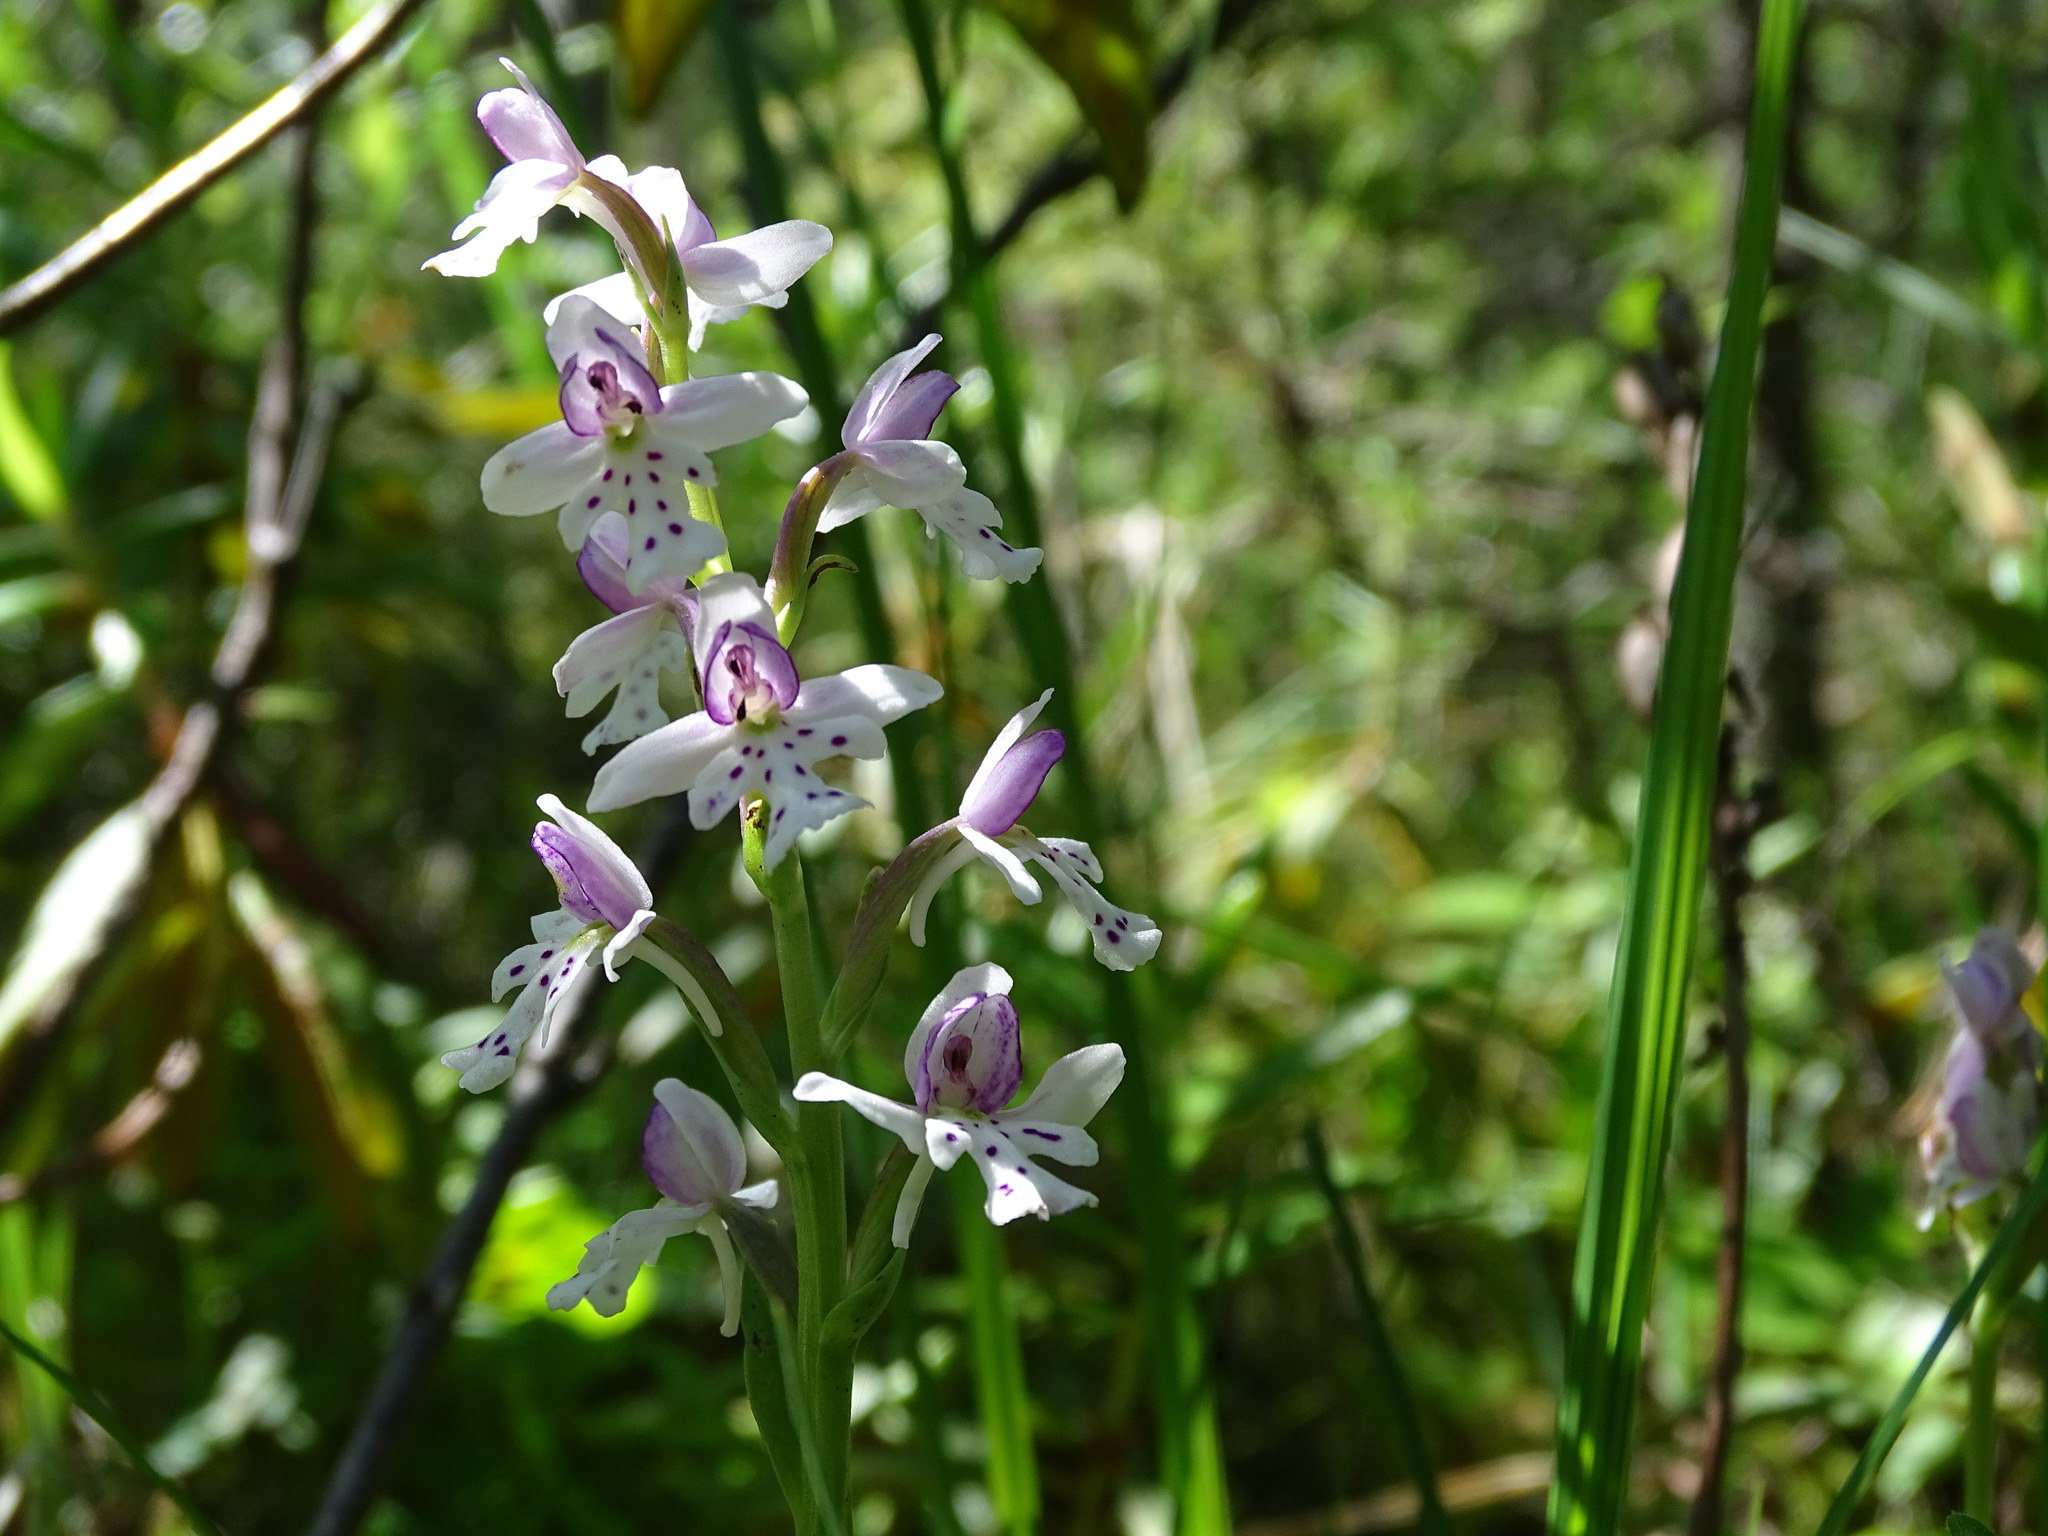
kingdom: Plantae
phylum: Tracheophyta
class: Liliopsida
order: Asparagales
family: Orchidaceae
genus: Galearis
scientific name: Galearis rotundifolia
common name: One-leaved orchis
